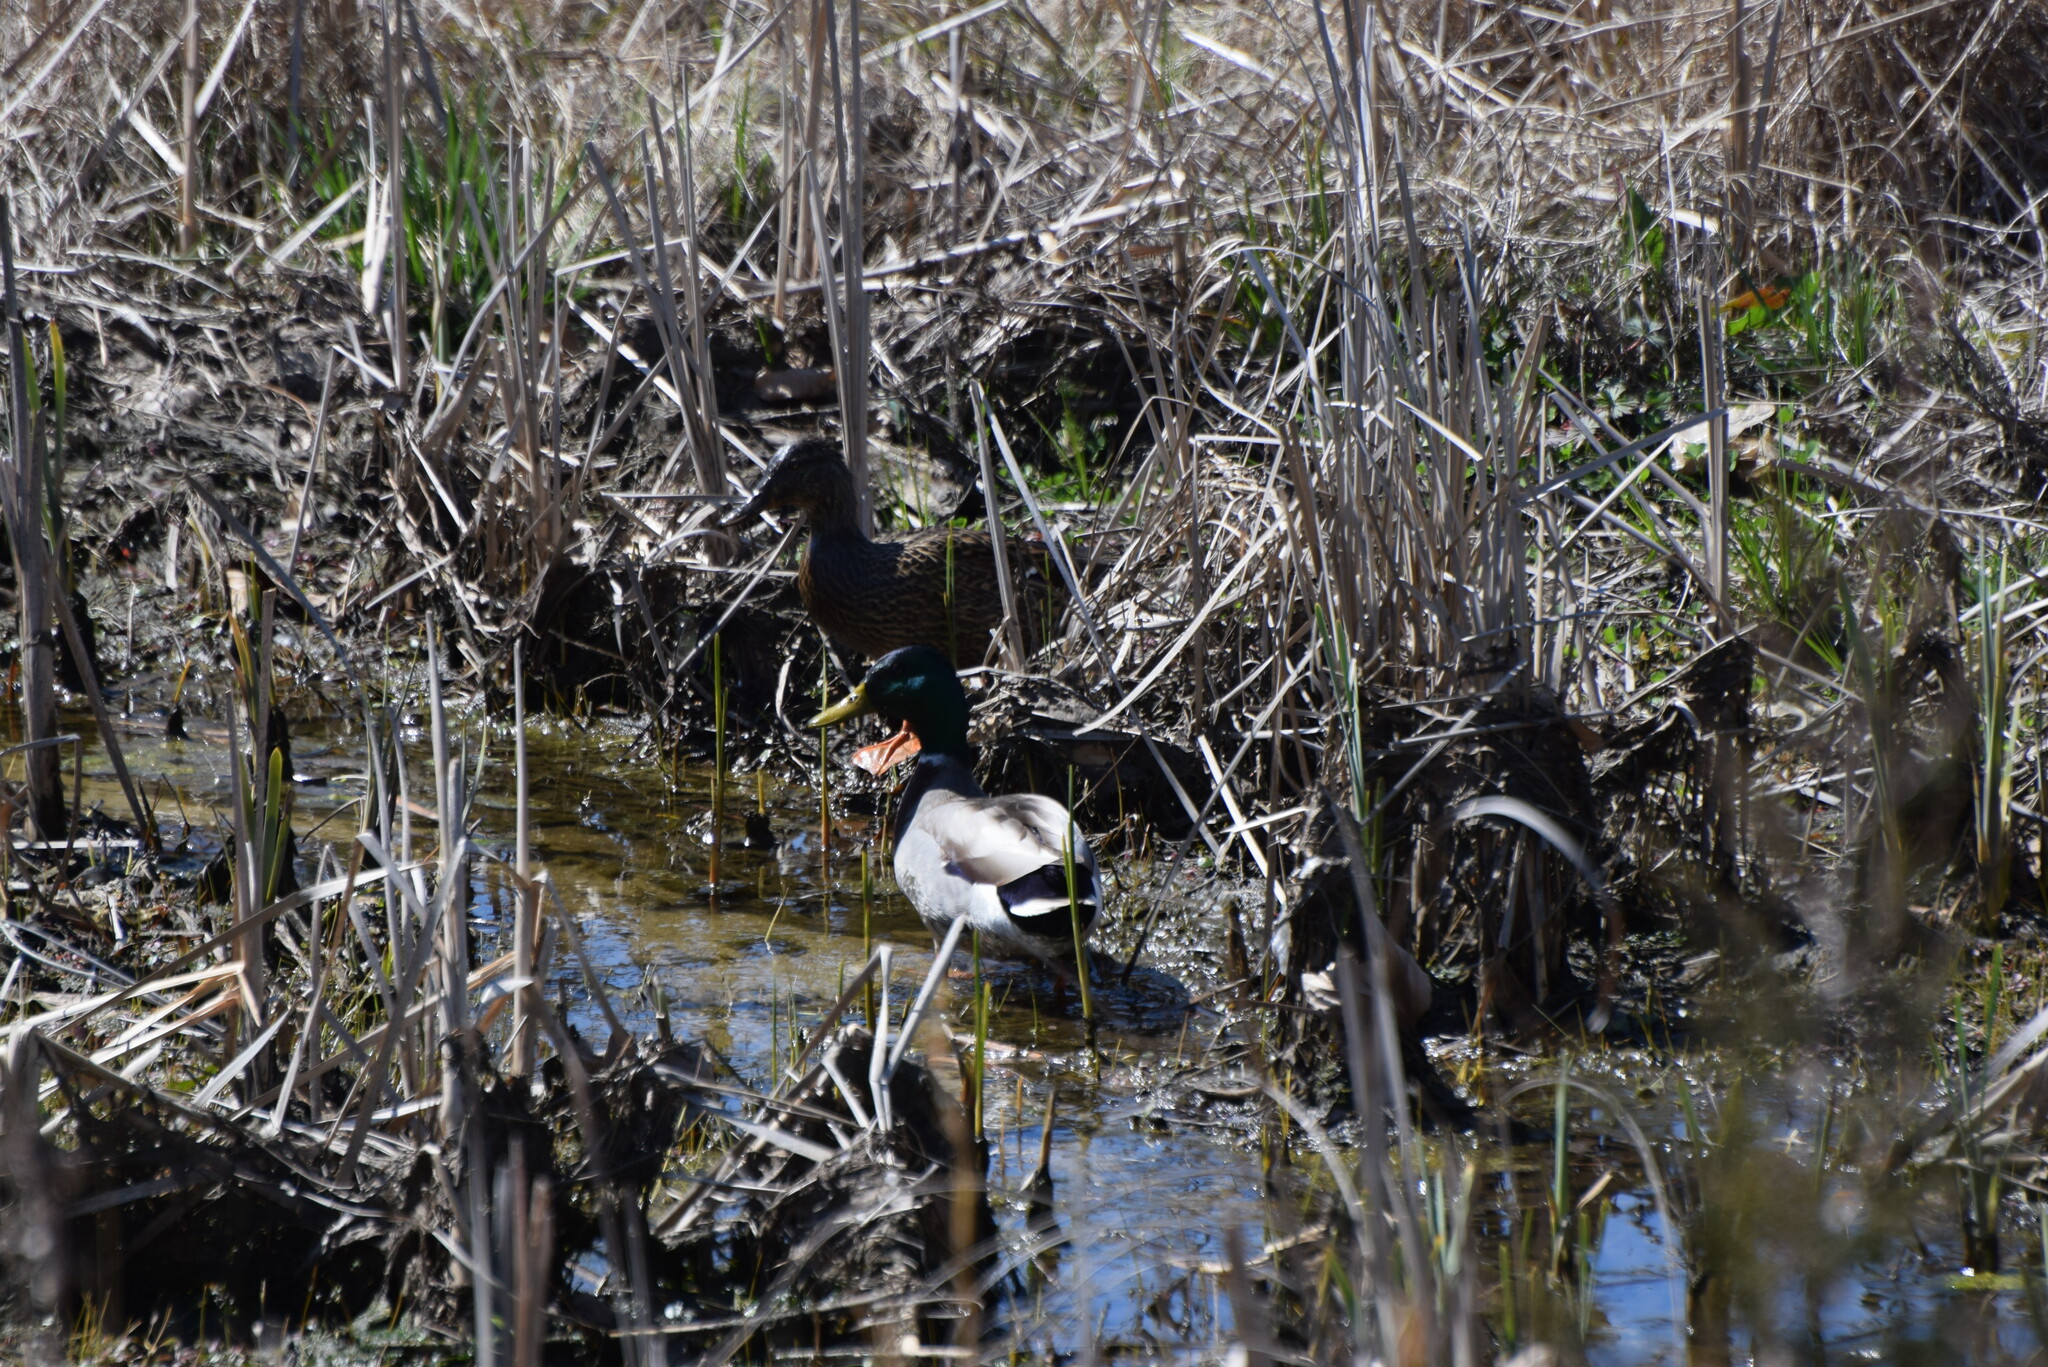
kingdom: Animalia
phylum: Chordata
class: Aves
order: Anseriformes
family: Anatidae
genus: Anas
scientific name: Anas platyrhynchos
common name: Mallard
